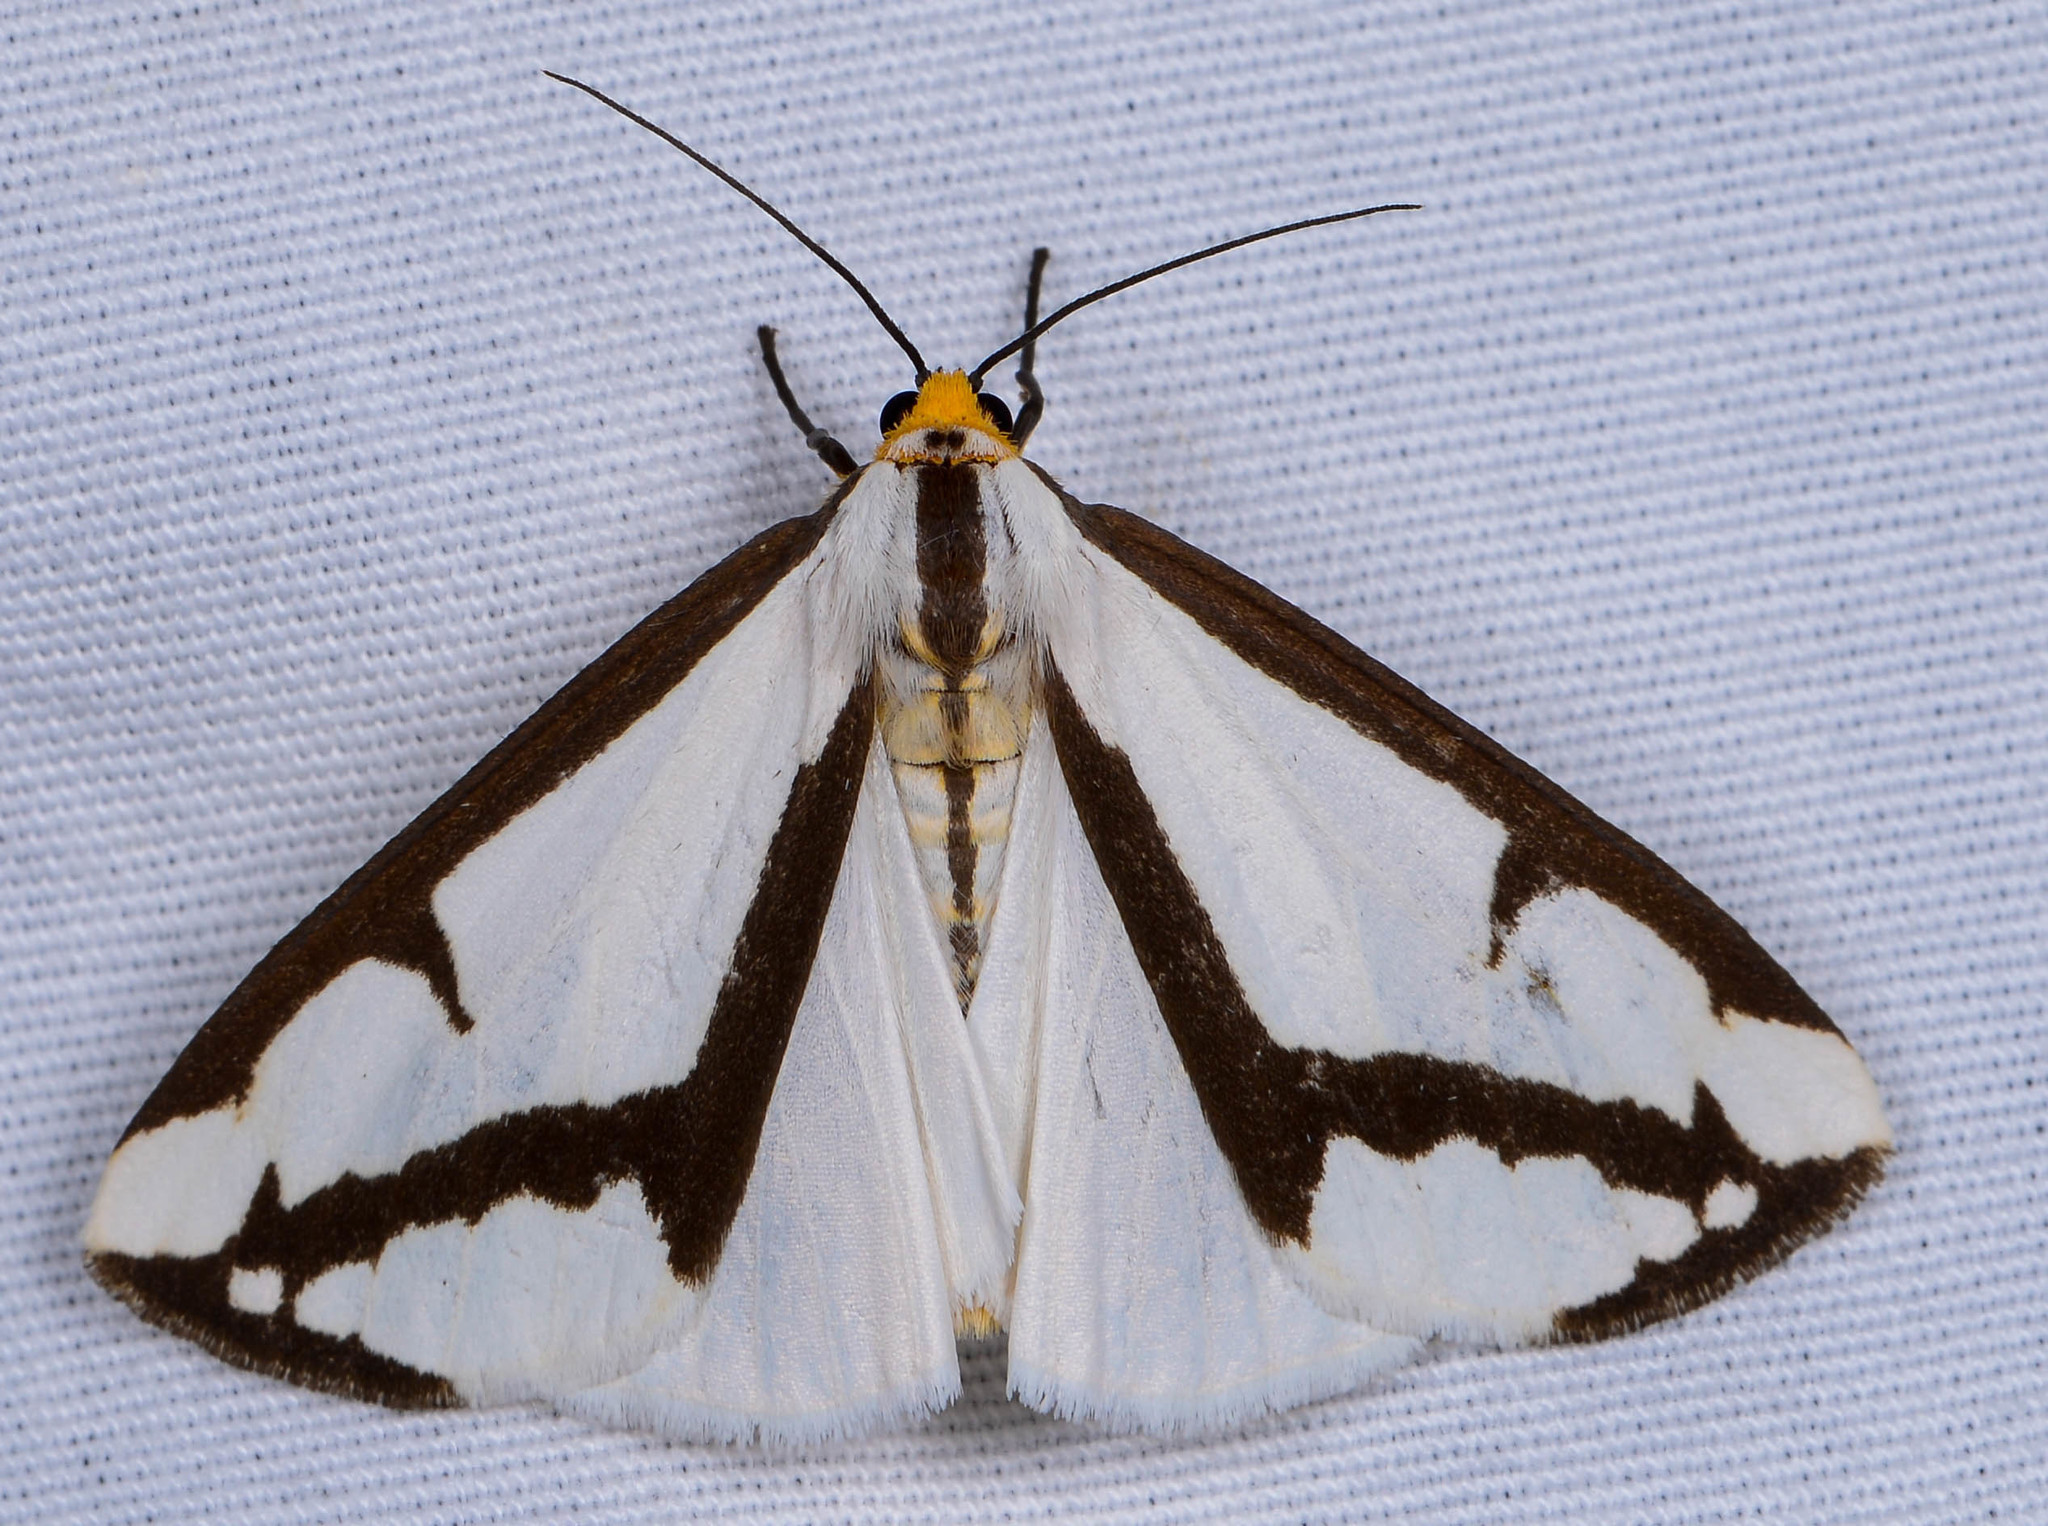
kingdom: Animalia
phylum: Arthropoda
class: Insecta
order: Lepidoptera
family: Erebidae
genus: Haploa
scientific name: Haploa lecontei
